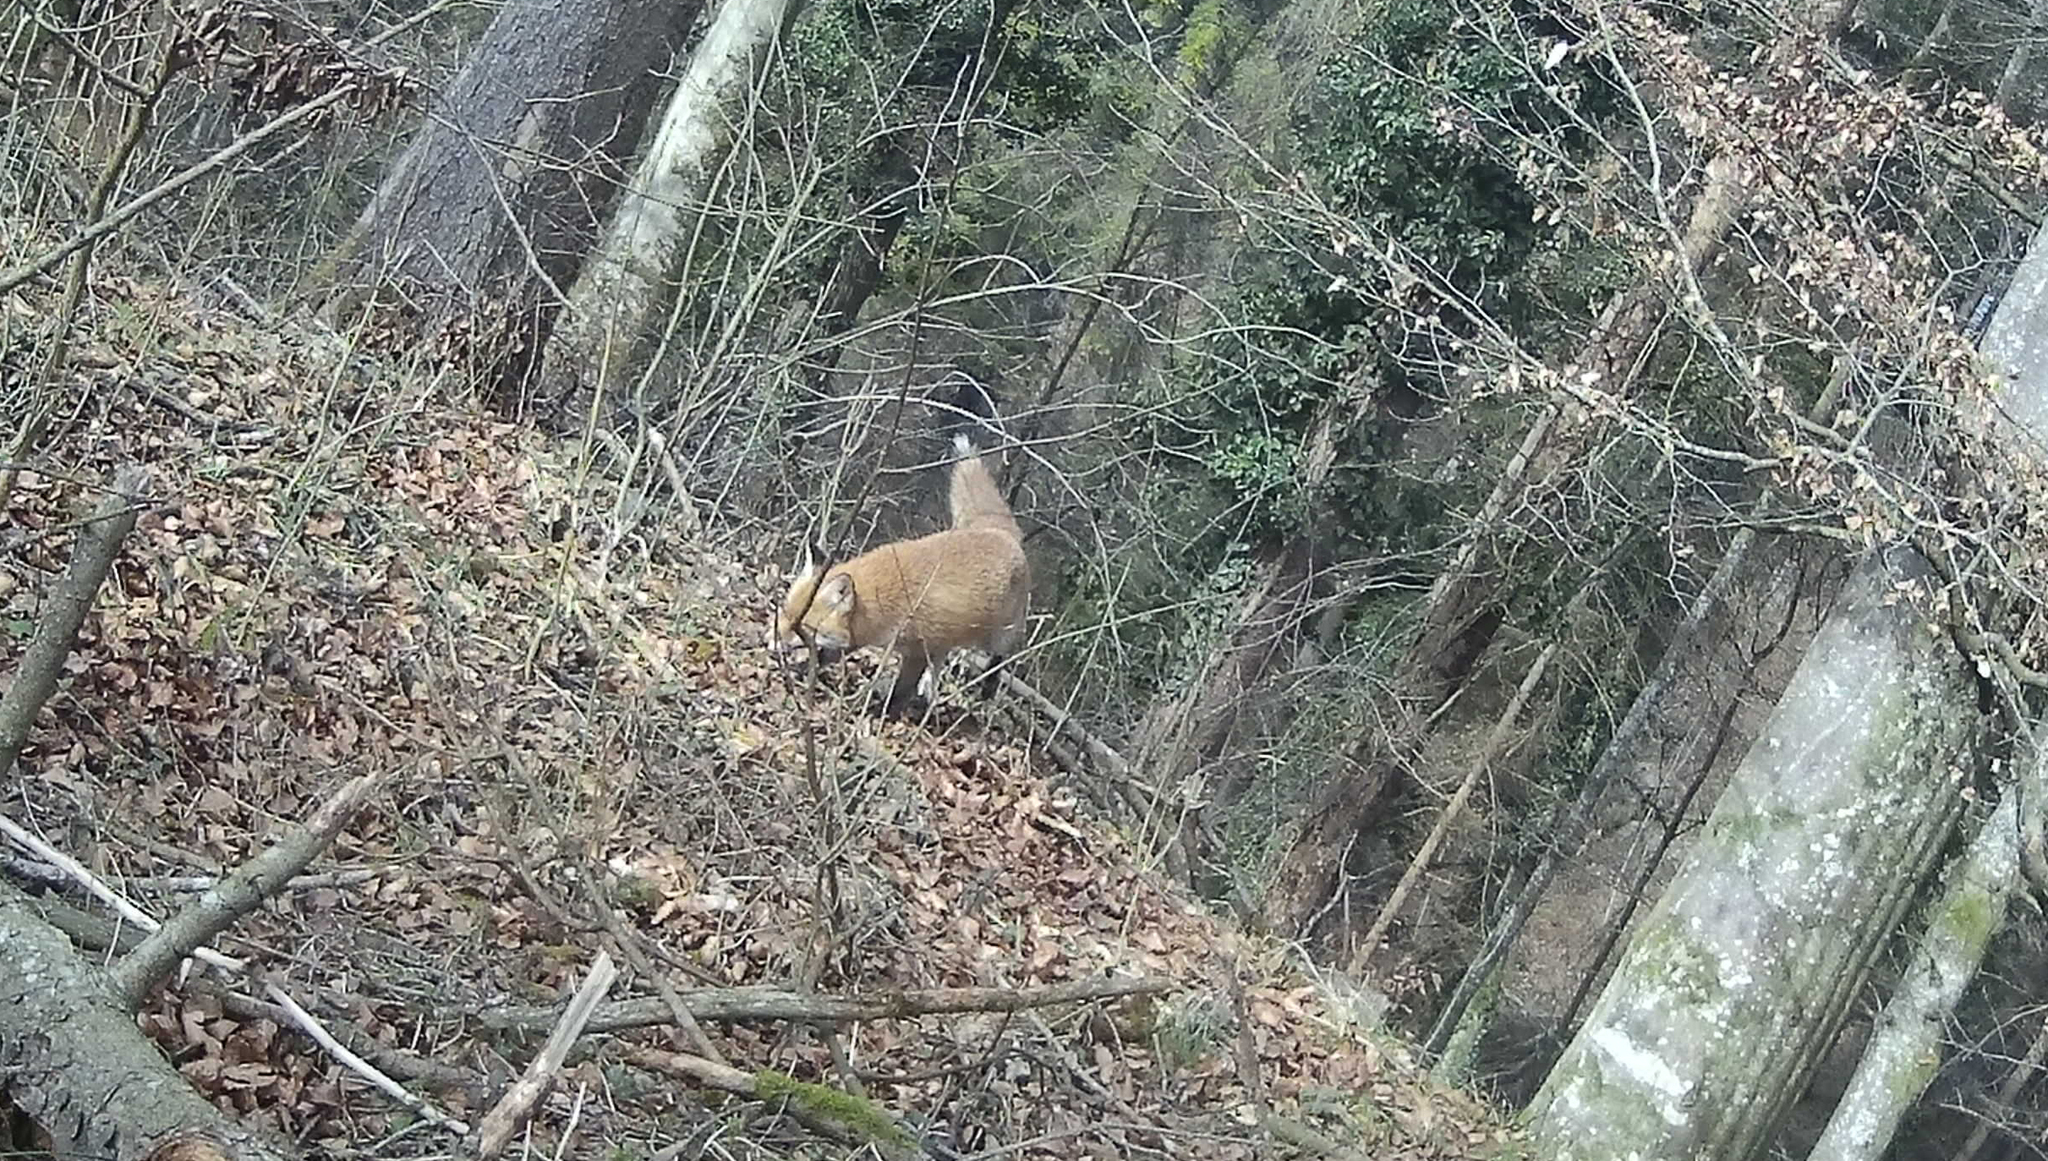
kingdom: Animalia
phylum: Chordata
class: Mammalia
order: Carnivora
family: Canidae
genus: Vulpes
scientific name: Vulpes vulpes
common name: Red fox
